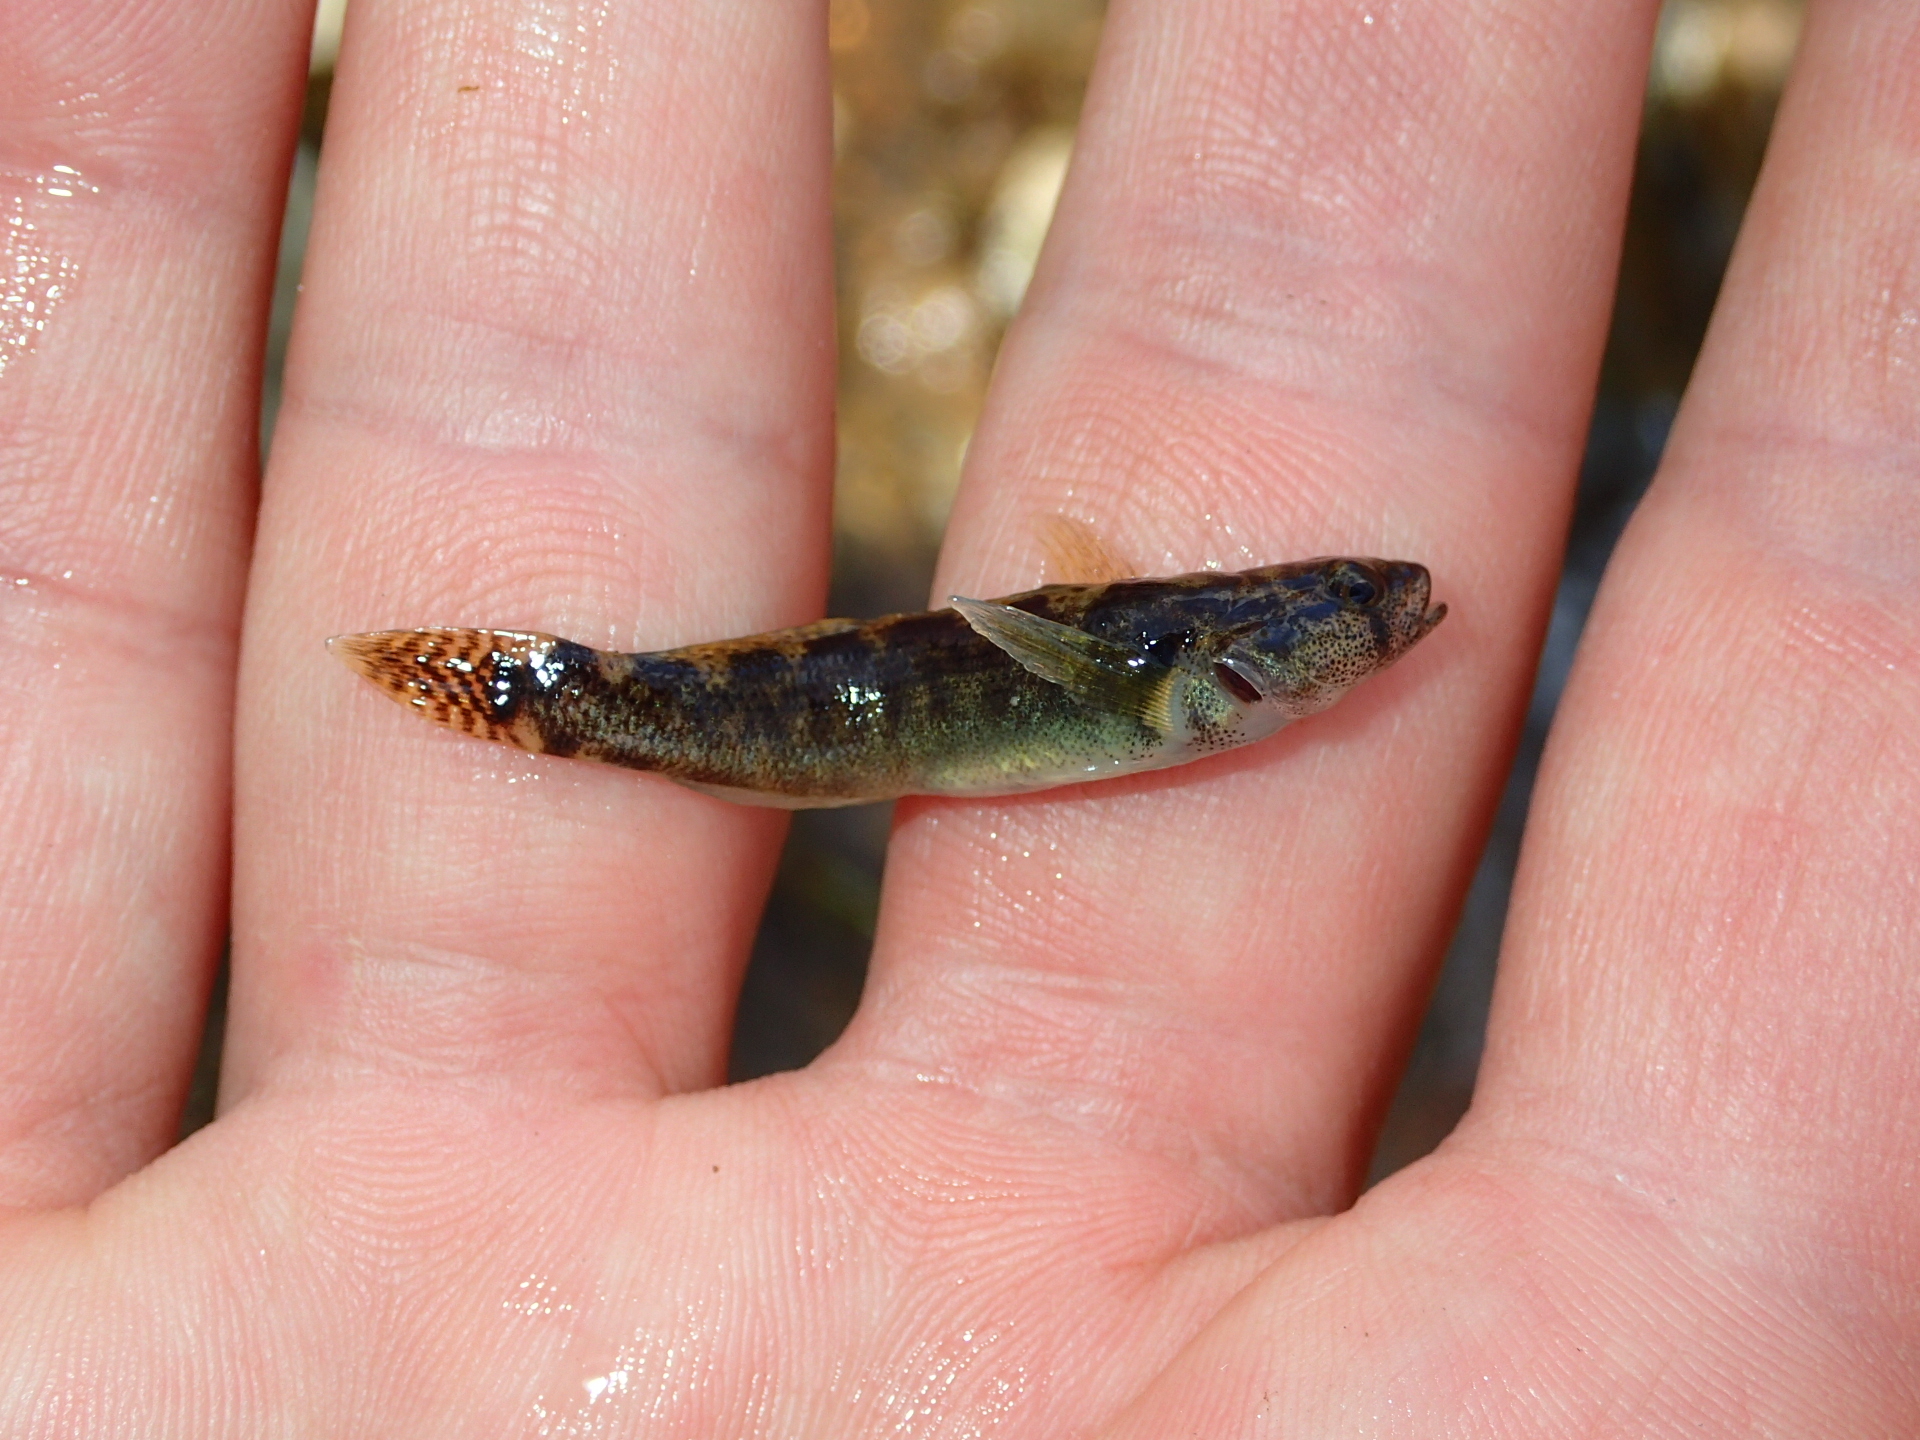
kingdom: Animalia
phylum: Chordata
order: Perciformes
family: Percidae
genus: Etheostoma
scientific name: Etheostoma flabellare
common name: Fantail darter
